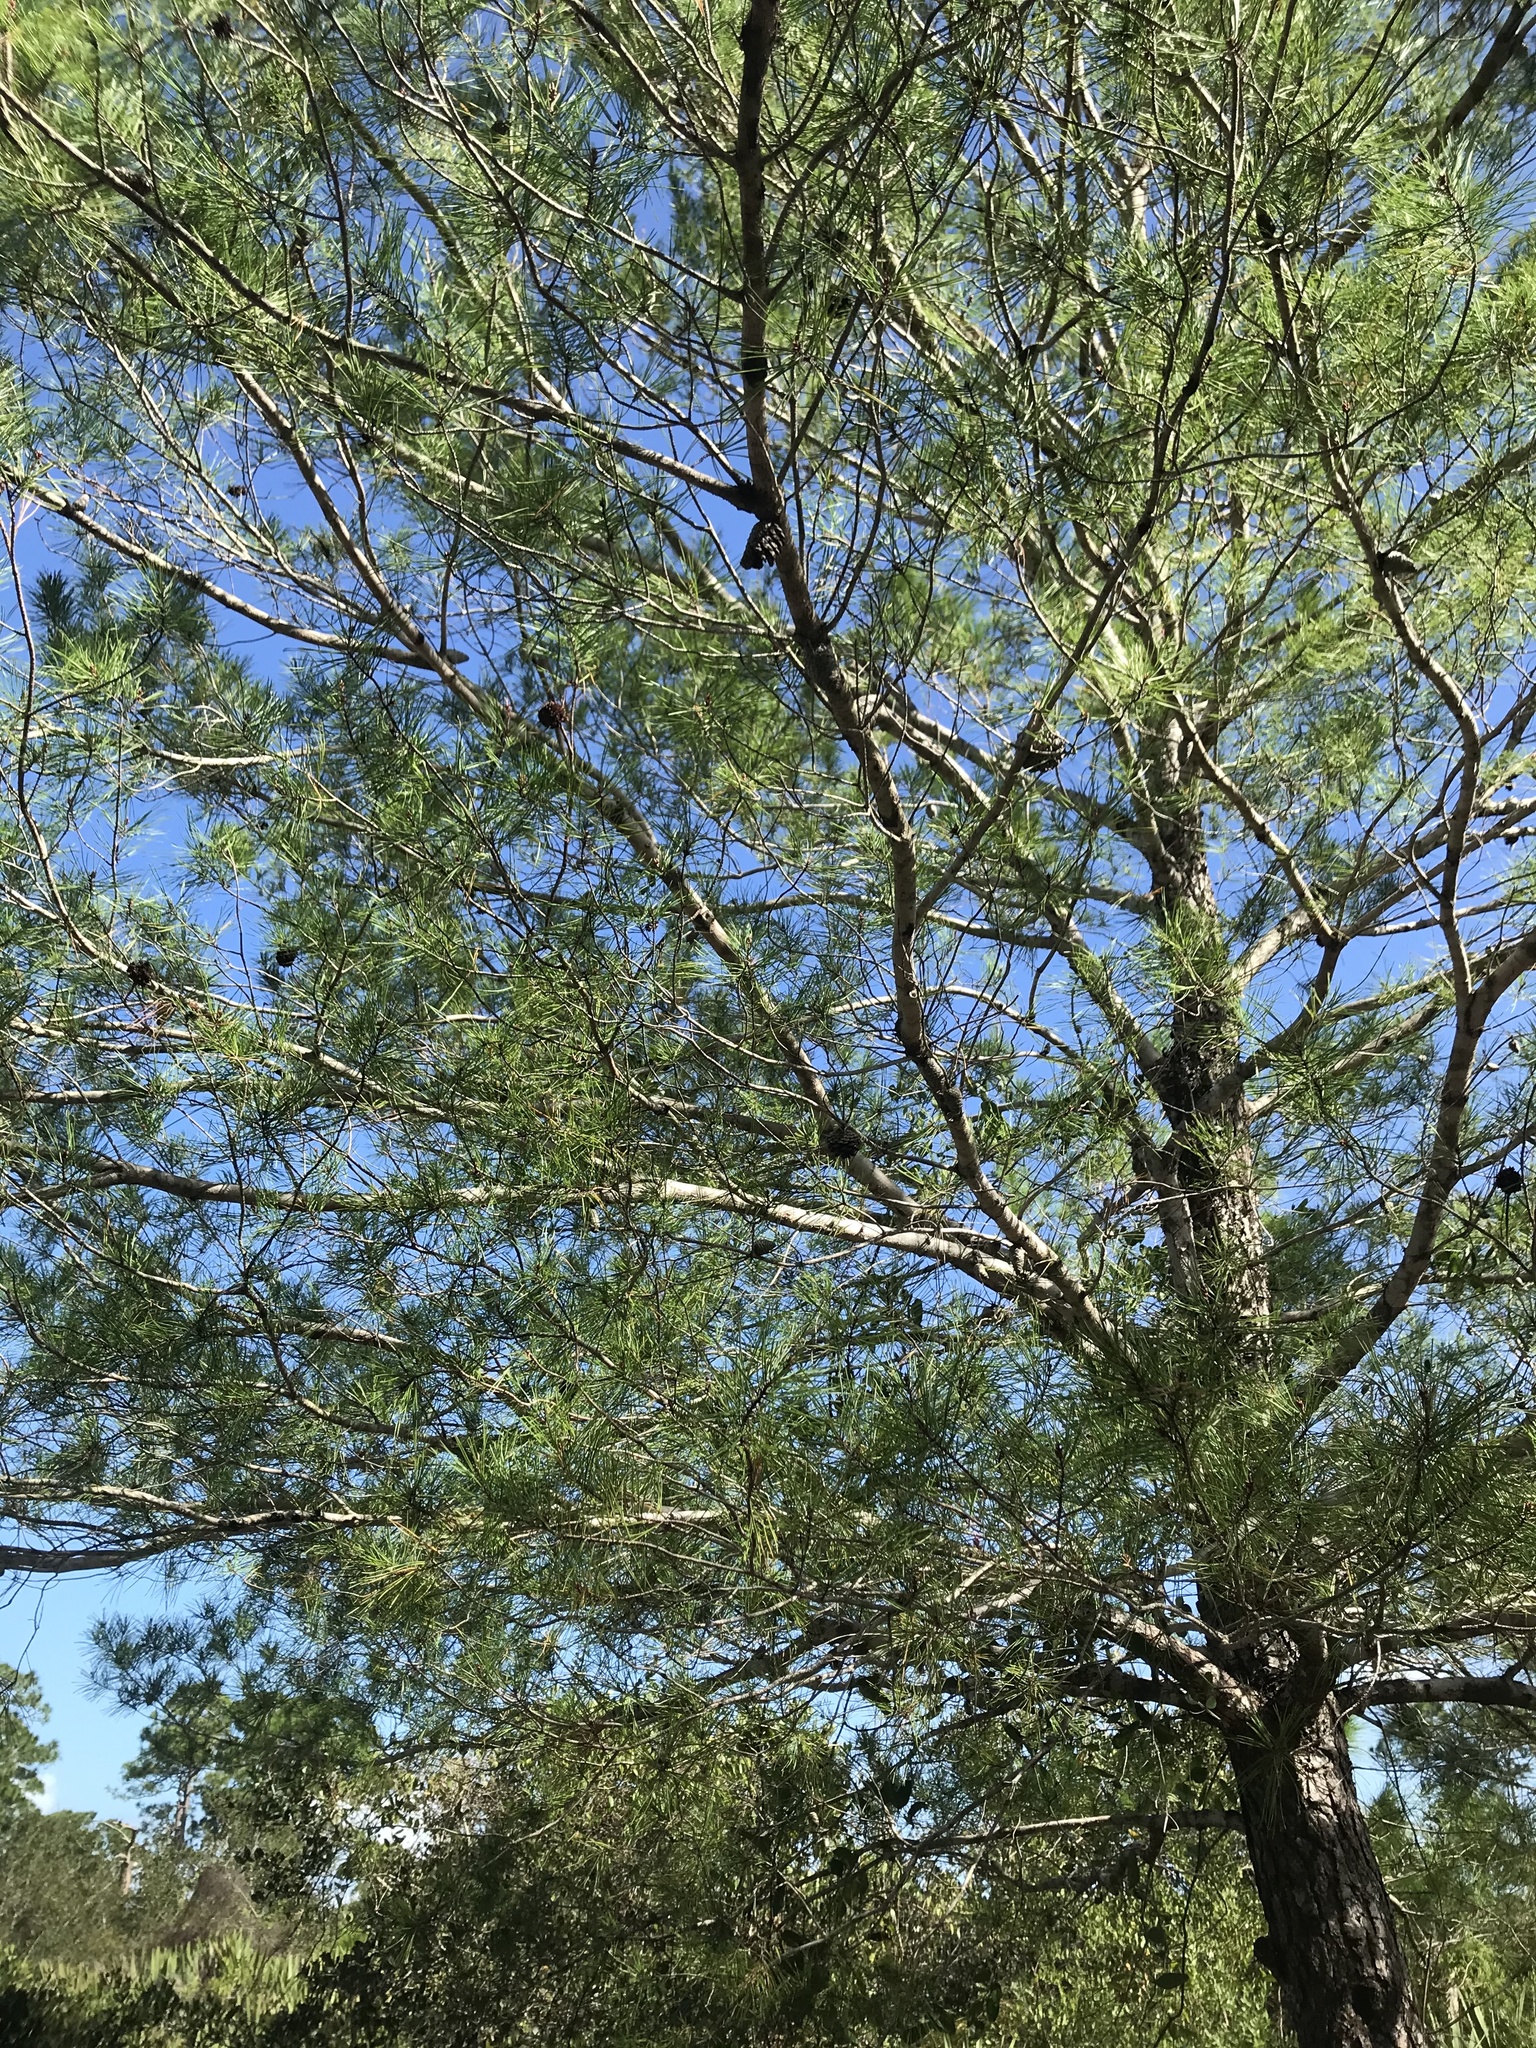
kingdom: Plantae
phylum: Tracheophyta
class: Pinopsida
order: Pinales
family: Pinaceae
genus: Pinus
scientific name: Pinus clausa
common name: Sand pine
